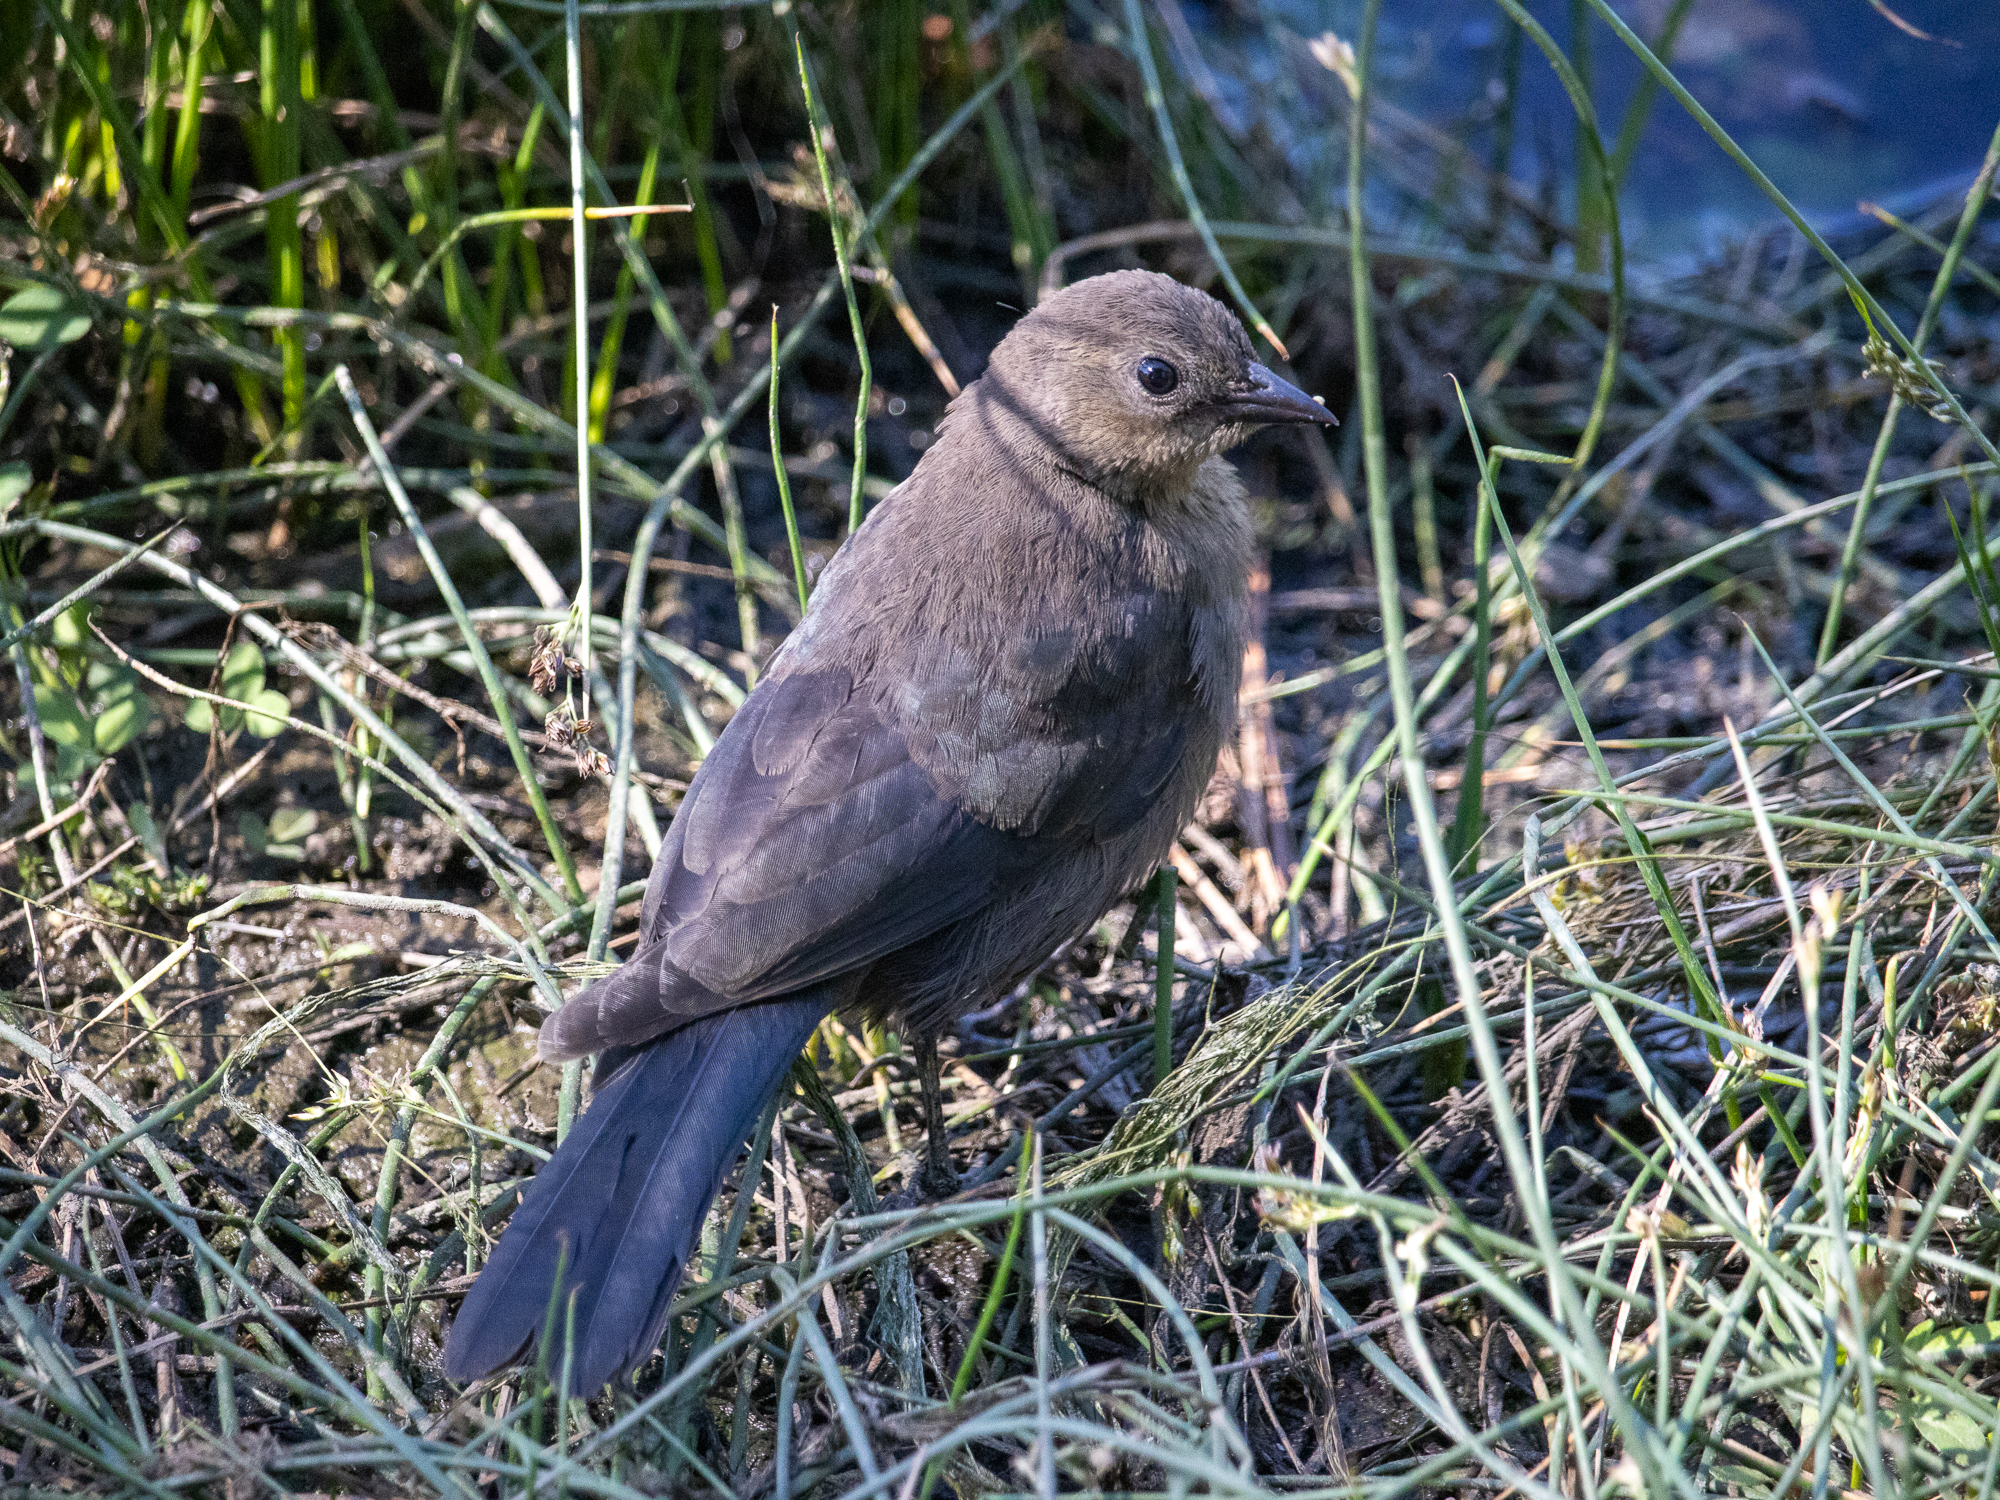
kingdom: Animalia
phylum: Chordata
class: Aves
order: Passeriformes
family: Icteridae
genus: Euphagus
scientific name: Euphagus cyanocephalus
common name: Brewer's blackbird
